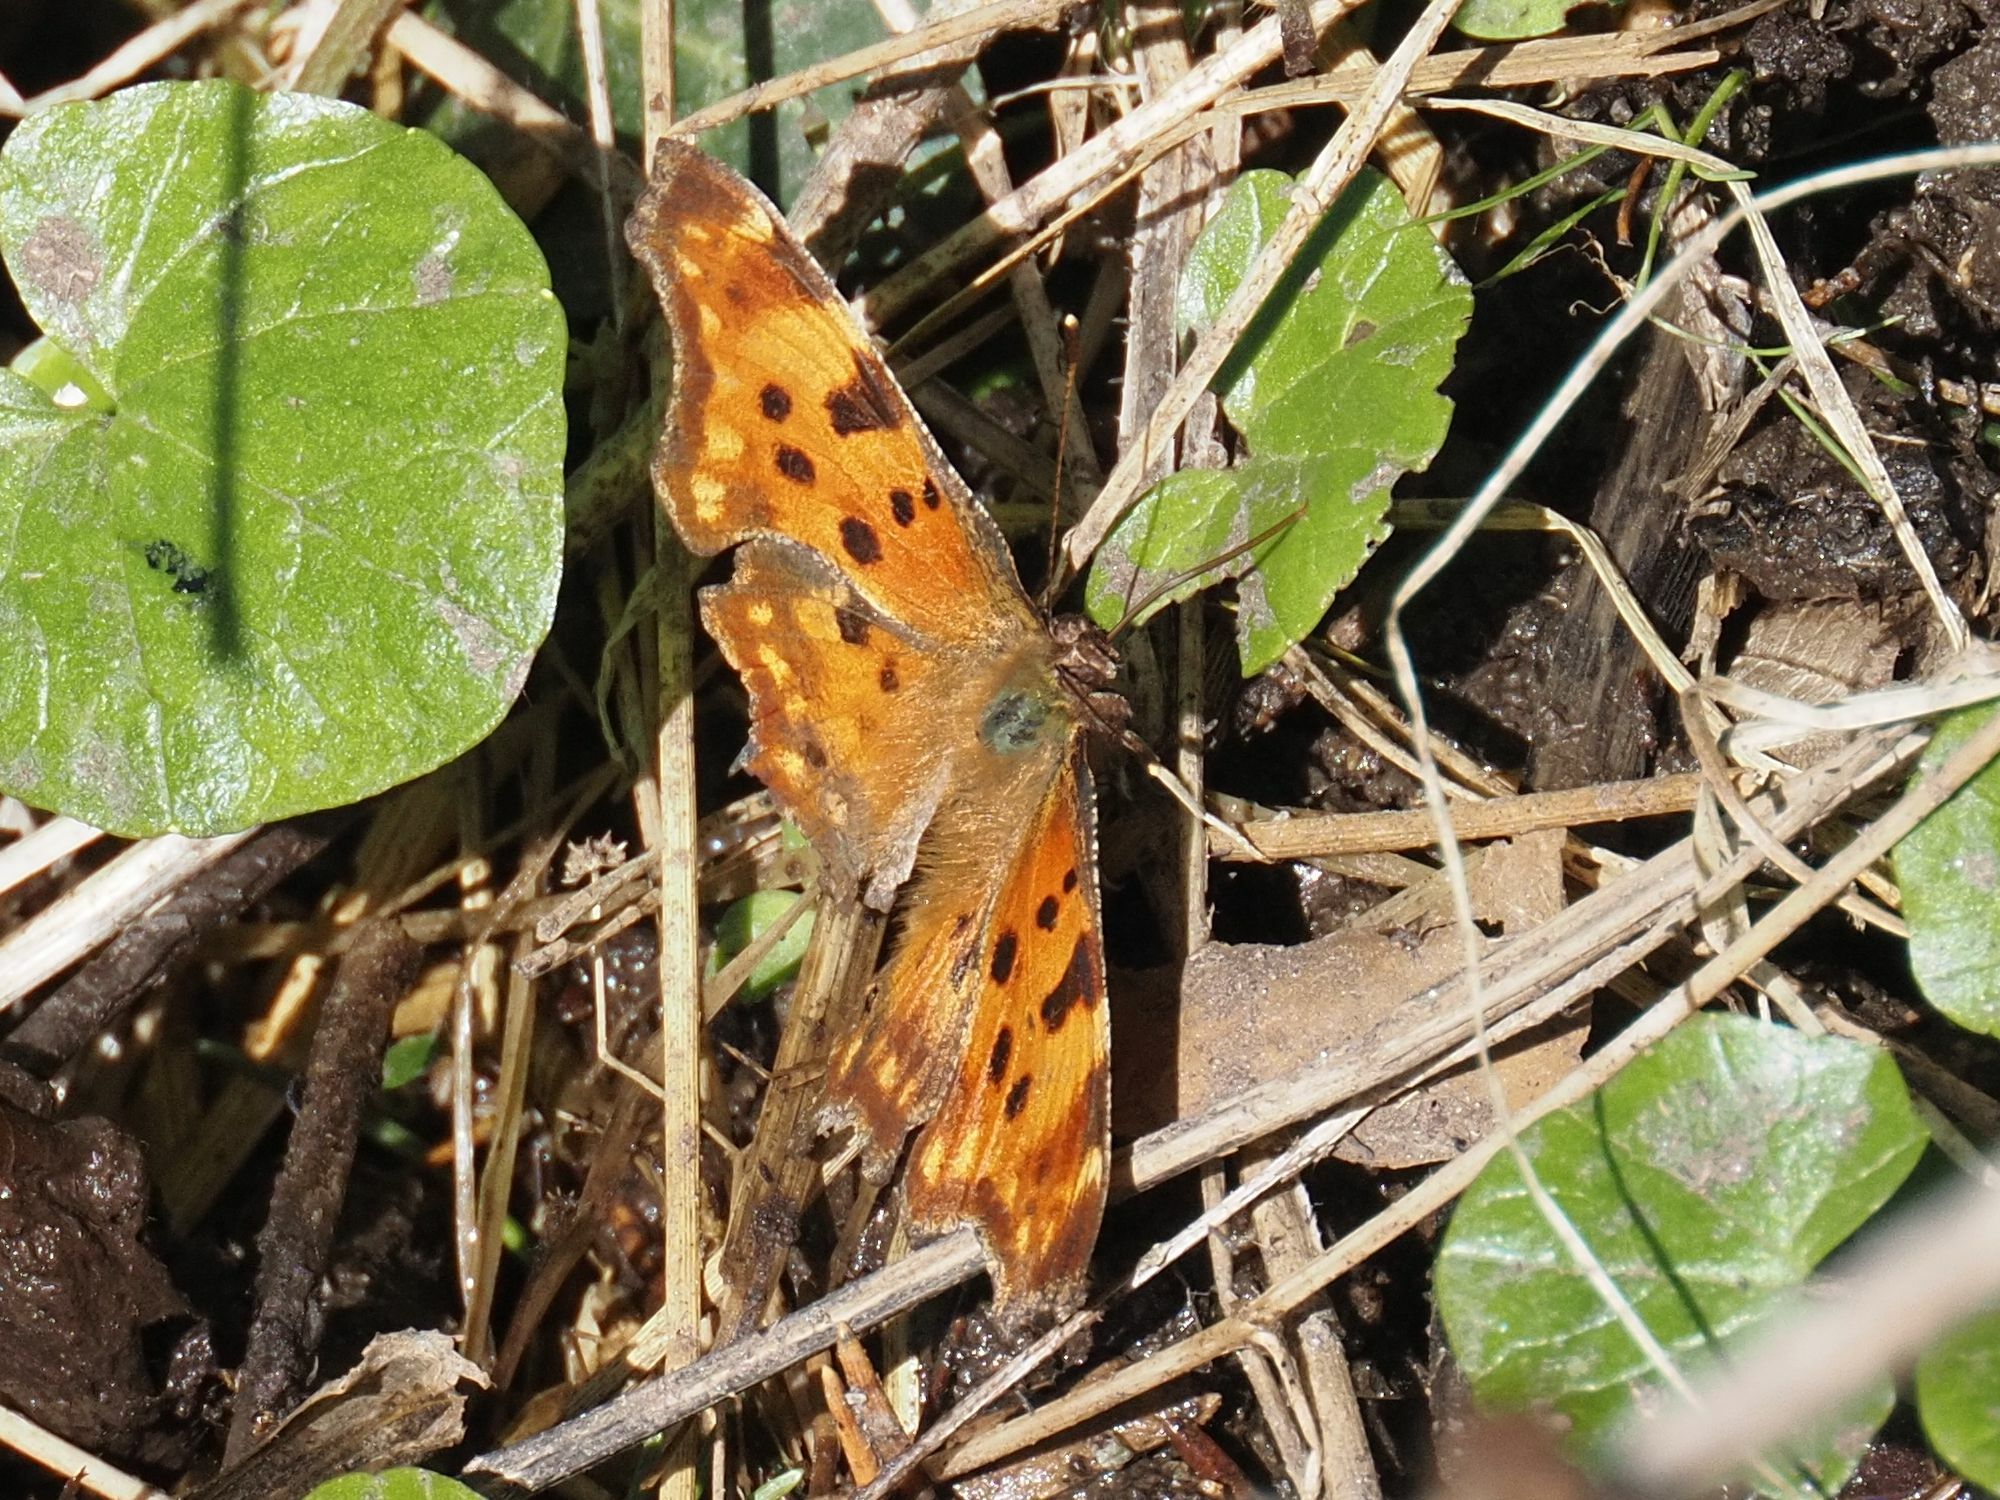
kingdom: Animalia
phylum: Arthropoda
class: Insecta
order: Lepidoptera
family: Nymphalidae
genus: Polygonia
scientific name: Polygonia c-album
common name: Comma
